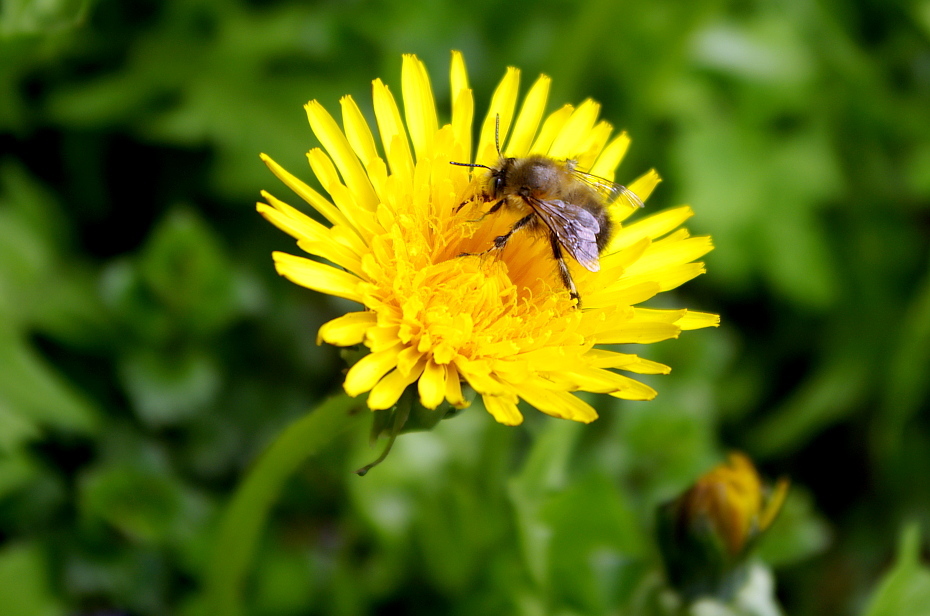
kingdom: Plantae
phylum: Tracheophyta
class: Magnoliopsida
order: Asterales
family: Asteraceae
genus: Taraxacum
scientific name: Taraxacum officinale
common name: Common dandelion
